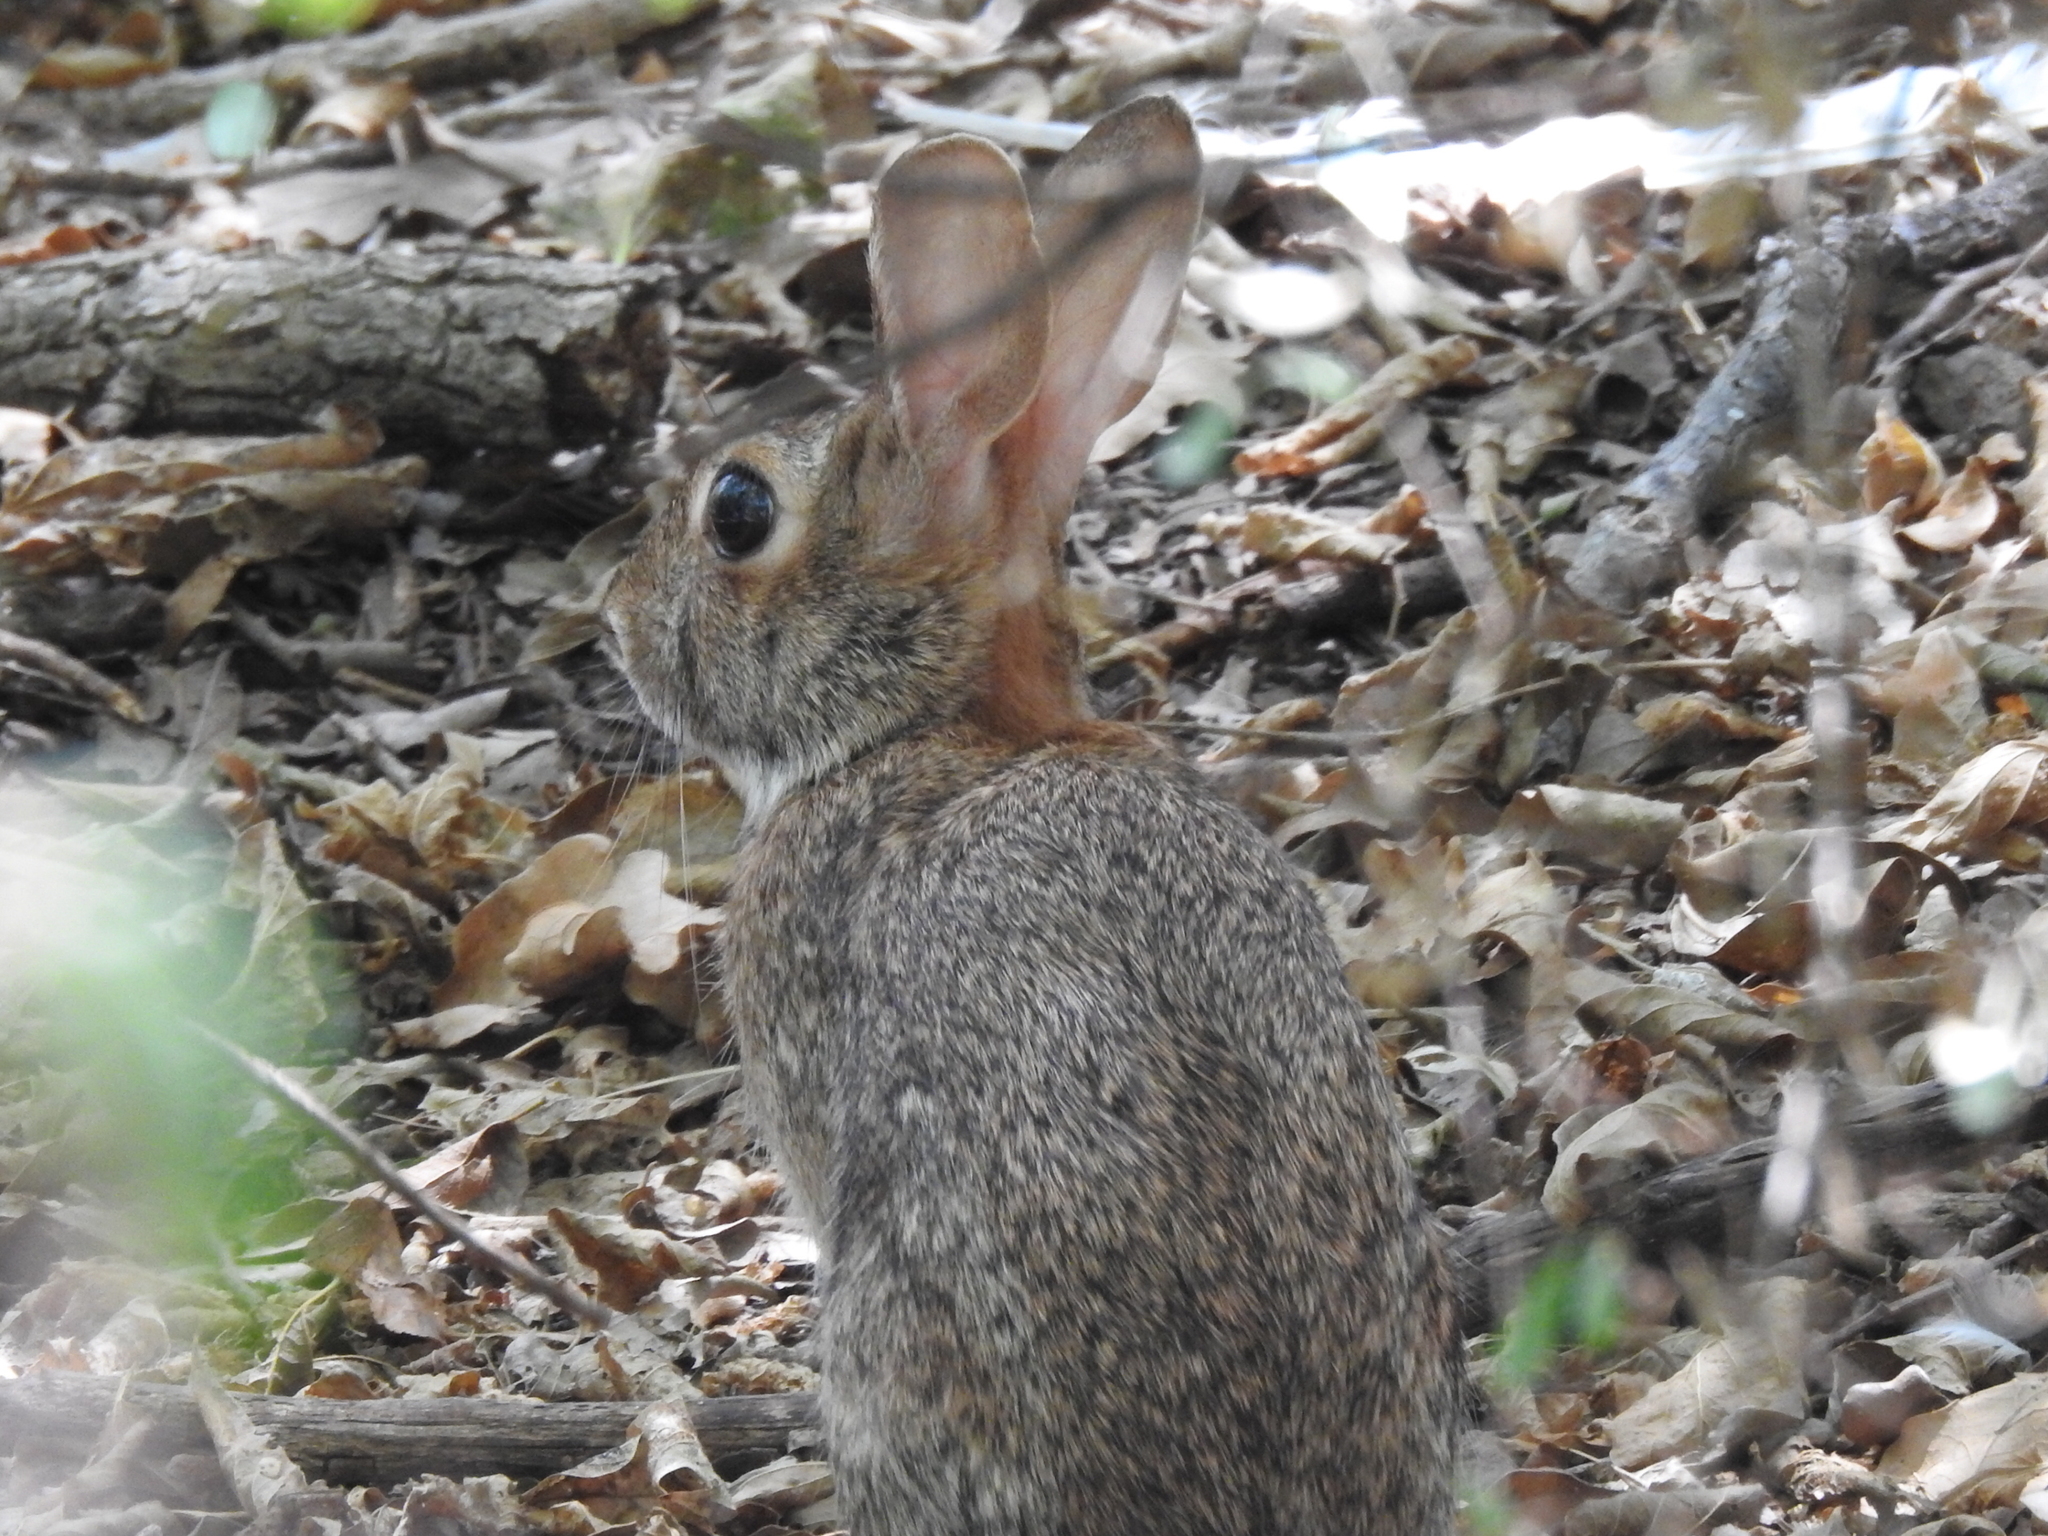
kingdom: Animalia
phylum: Chordata
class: Mammalia
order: Lagomorpha
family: Leporidae
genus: Sylvilagus
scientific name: Sylvilagus floridanus
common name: Eastern cottontail
